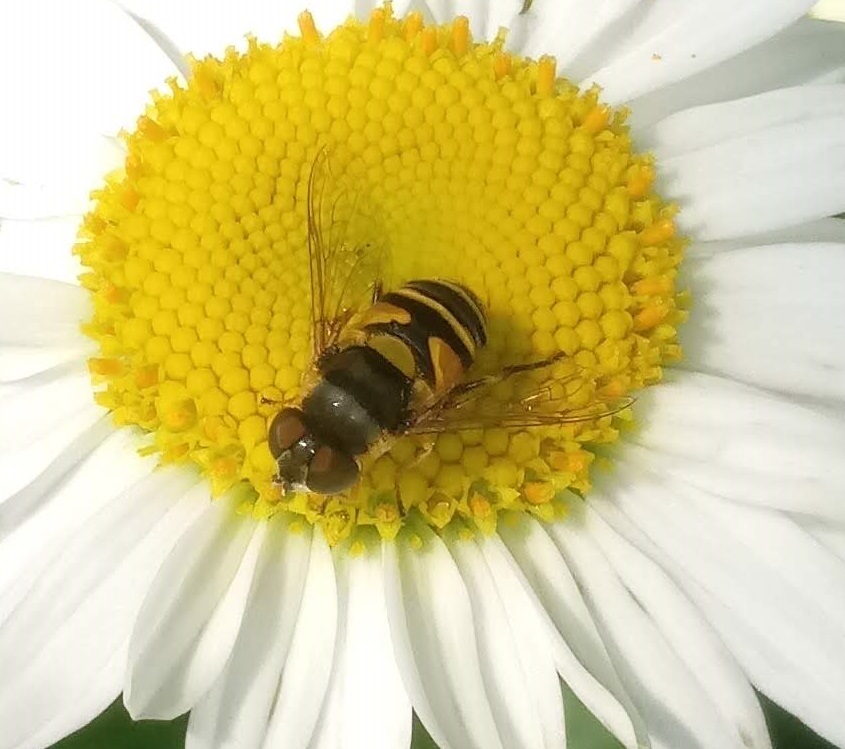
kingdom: Animalia
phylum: Arthropoda
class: Insecta
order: Diptera
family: Syrphidae
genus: Eristalis
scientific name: Eristalis transversa
